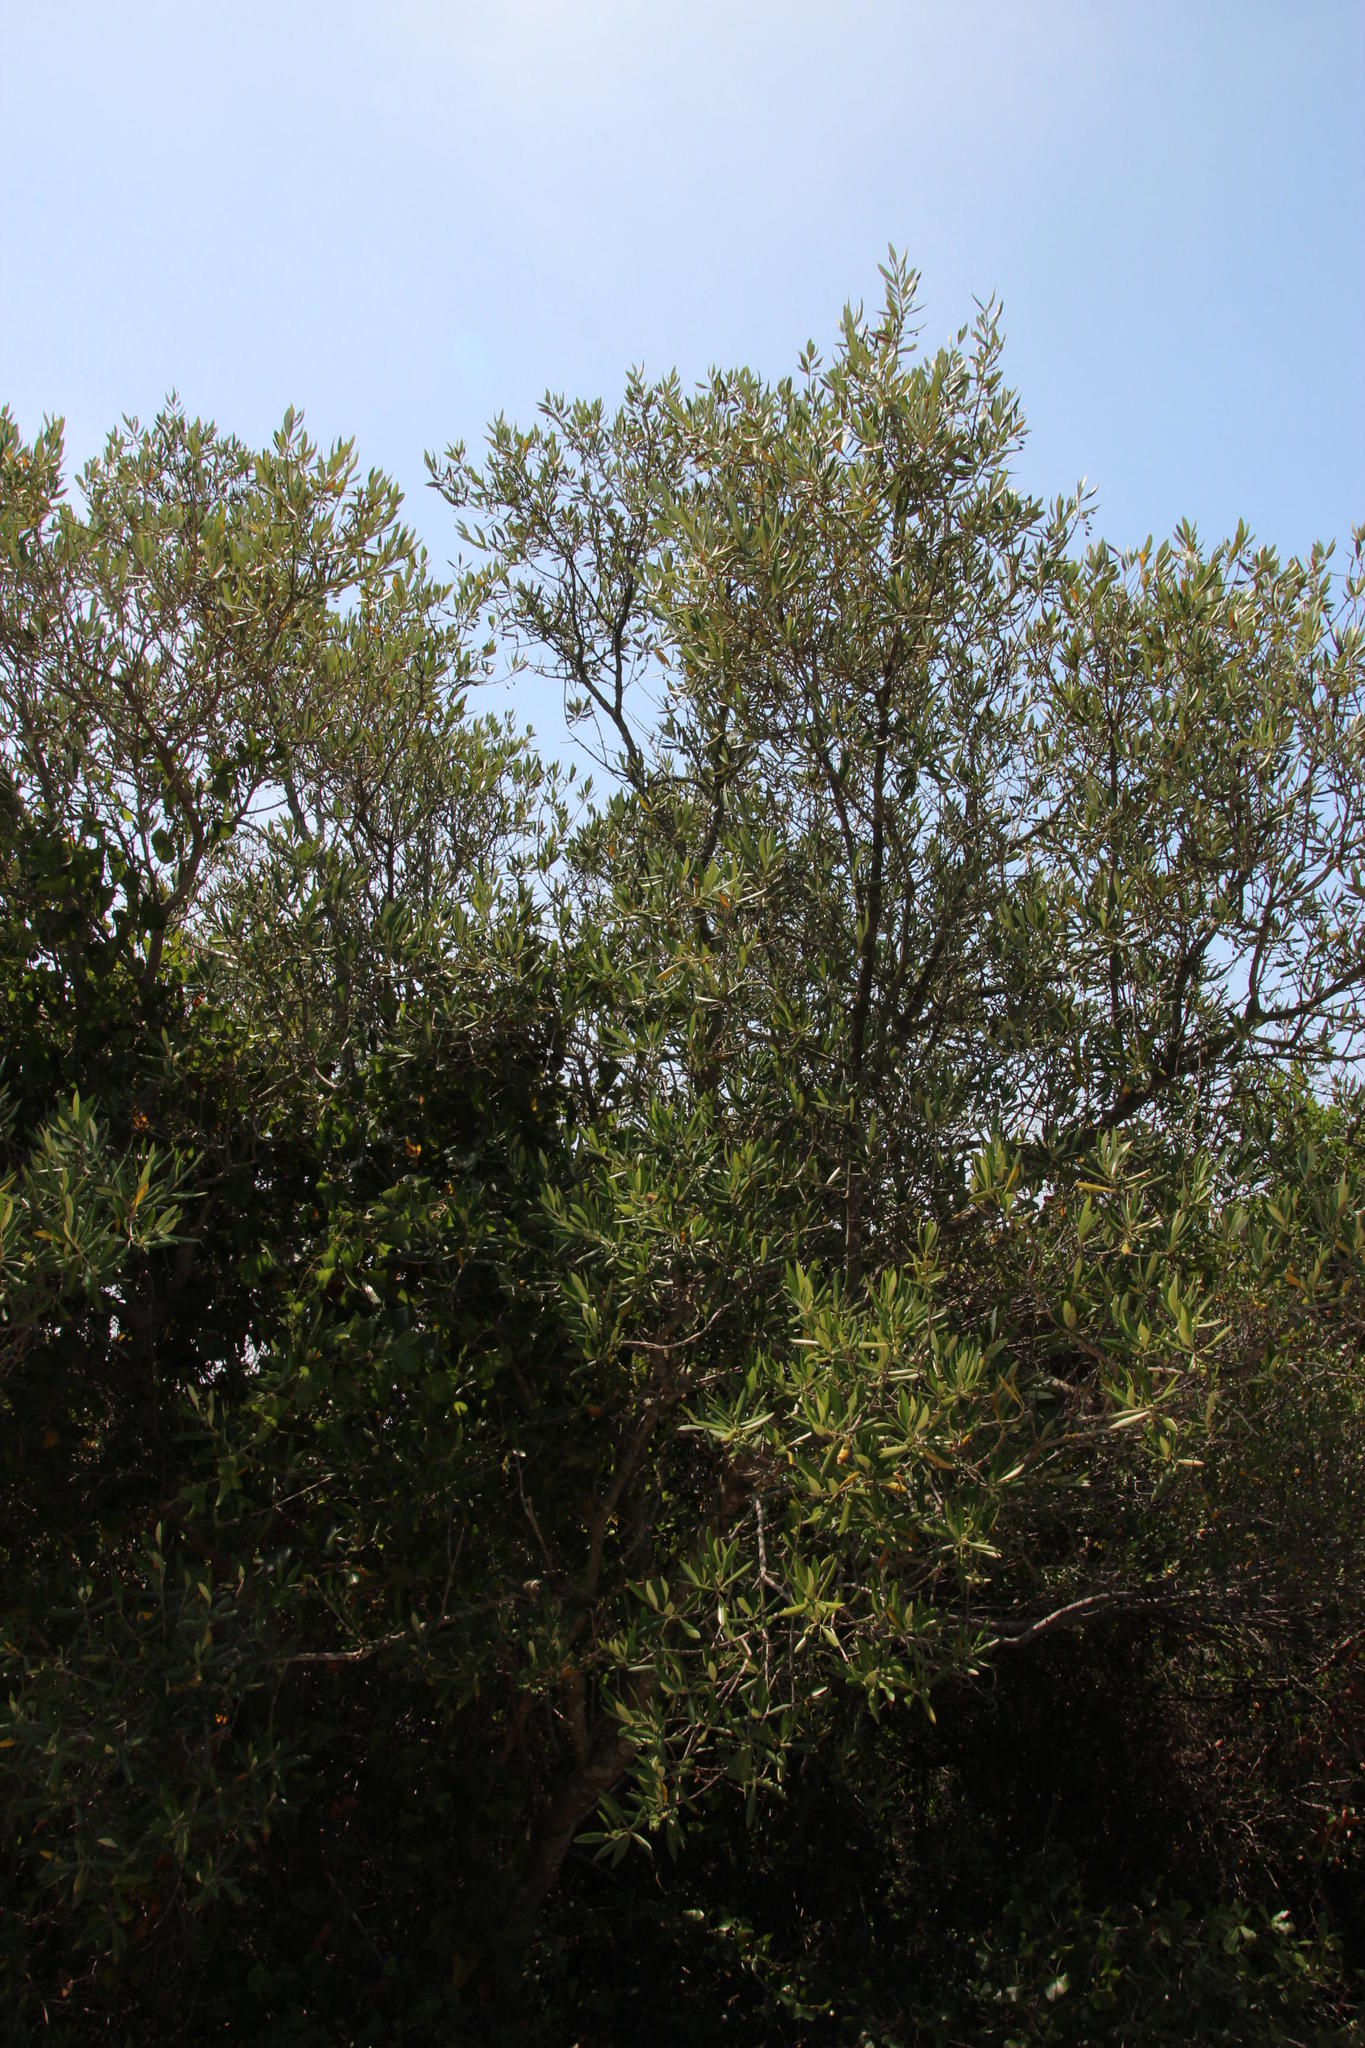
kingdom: Plantae
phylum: Tracheophyta
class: Magnoliopsida
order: Lamiales
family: Oleaceae
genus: Olea
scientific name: Olea europaea
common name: Olive
